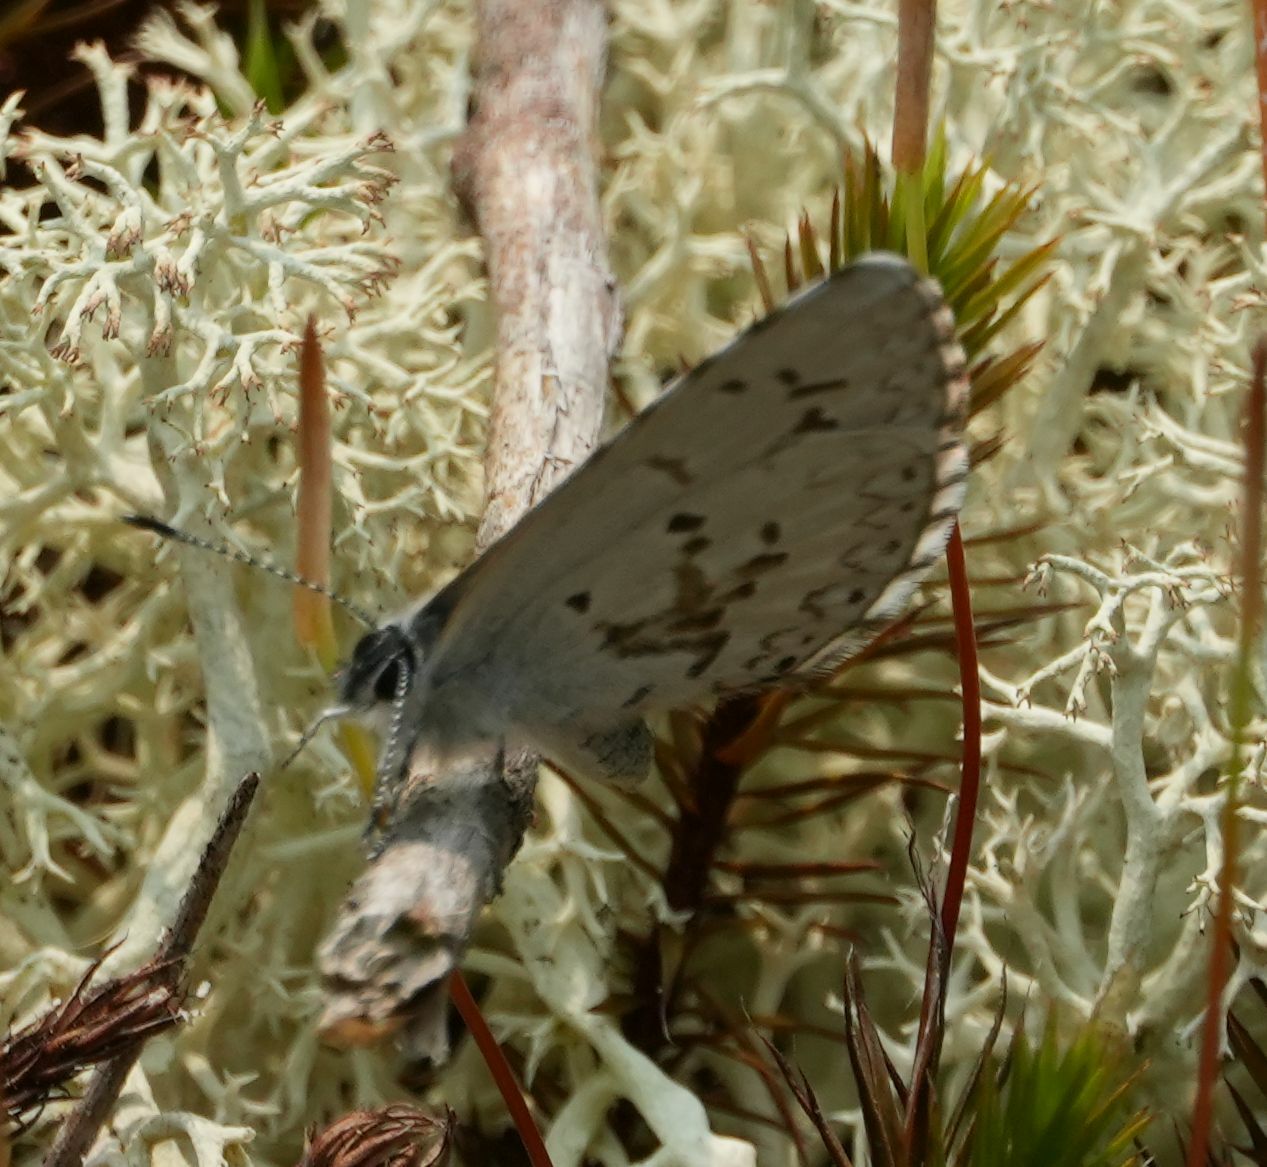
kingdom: Animalia
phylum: Arthropoda
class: Insecta
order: Lepidoptera
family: Lycaenidae
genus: Celastrina
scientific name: Celastrina lucia
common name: Lucia azure
